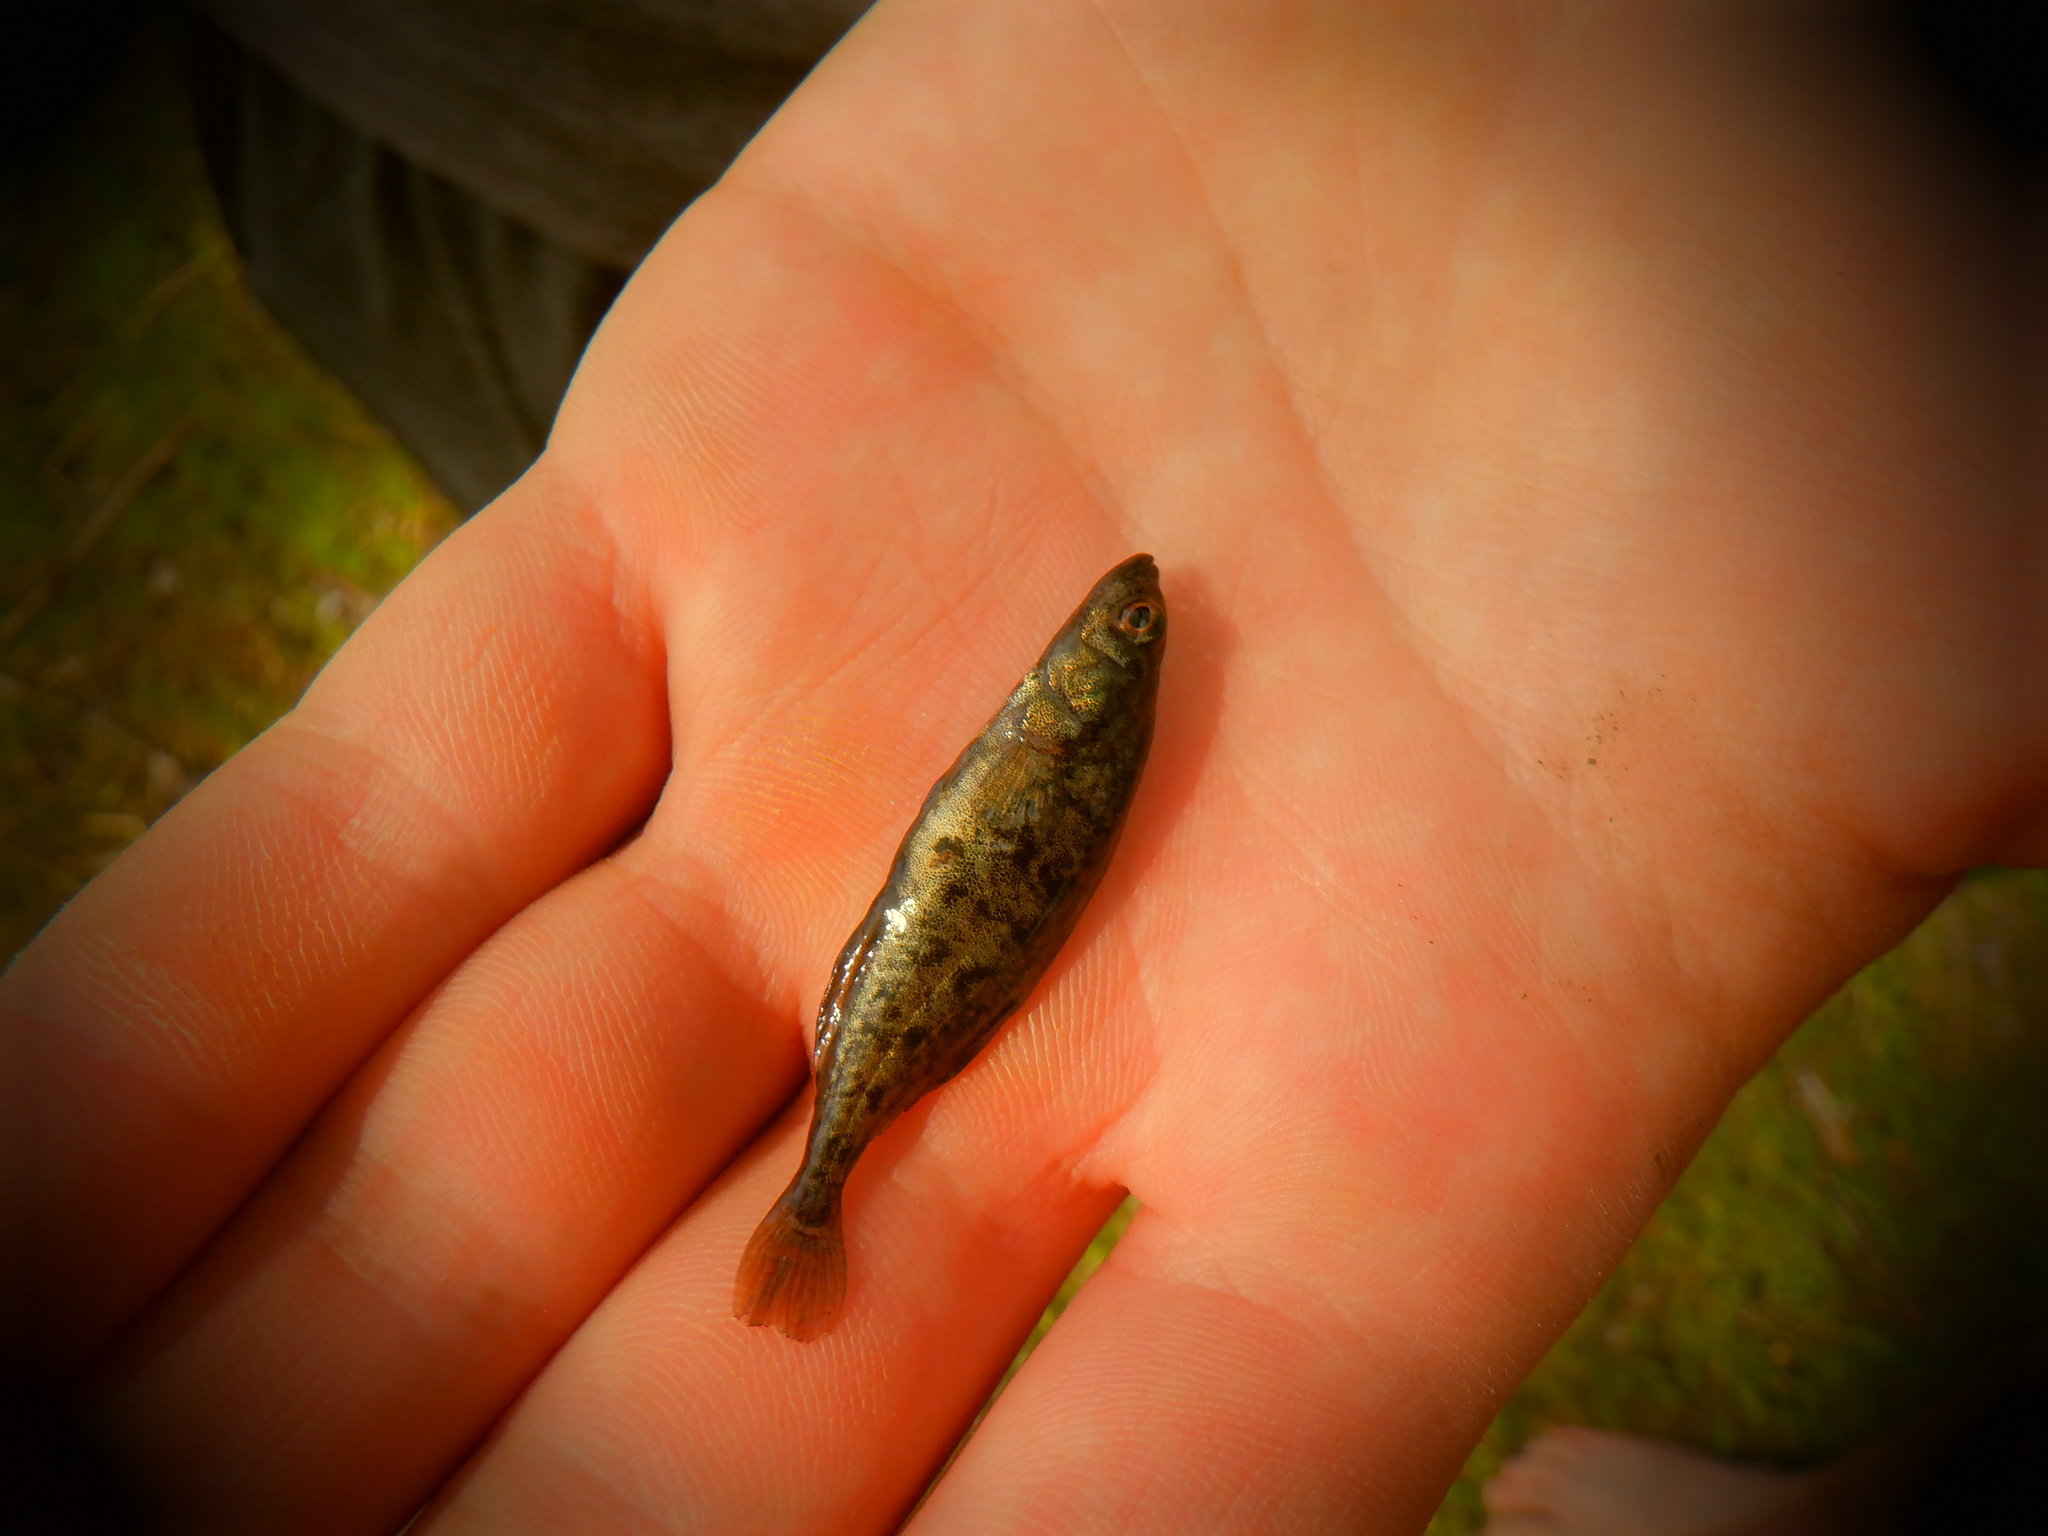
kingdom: Animalia
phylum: Chordata
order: Gasterosteiformes
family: Gasterosteidae
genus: Culaea
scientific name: Culaea inconstans
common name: Brook stickleback
